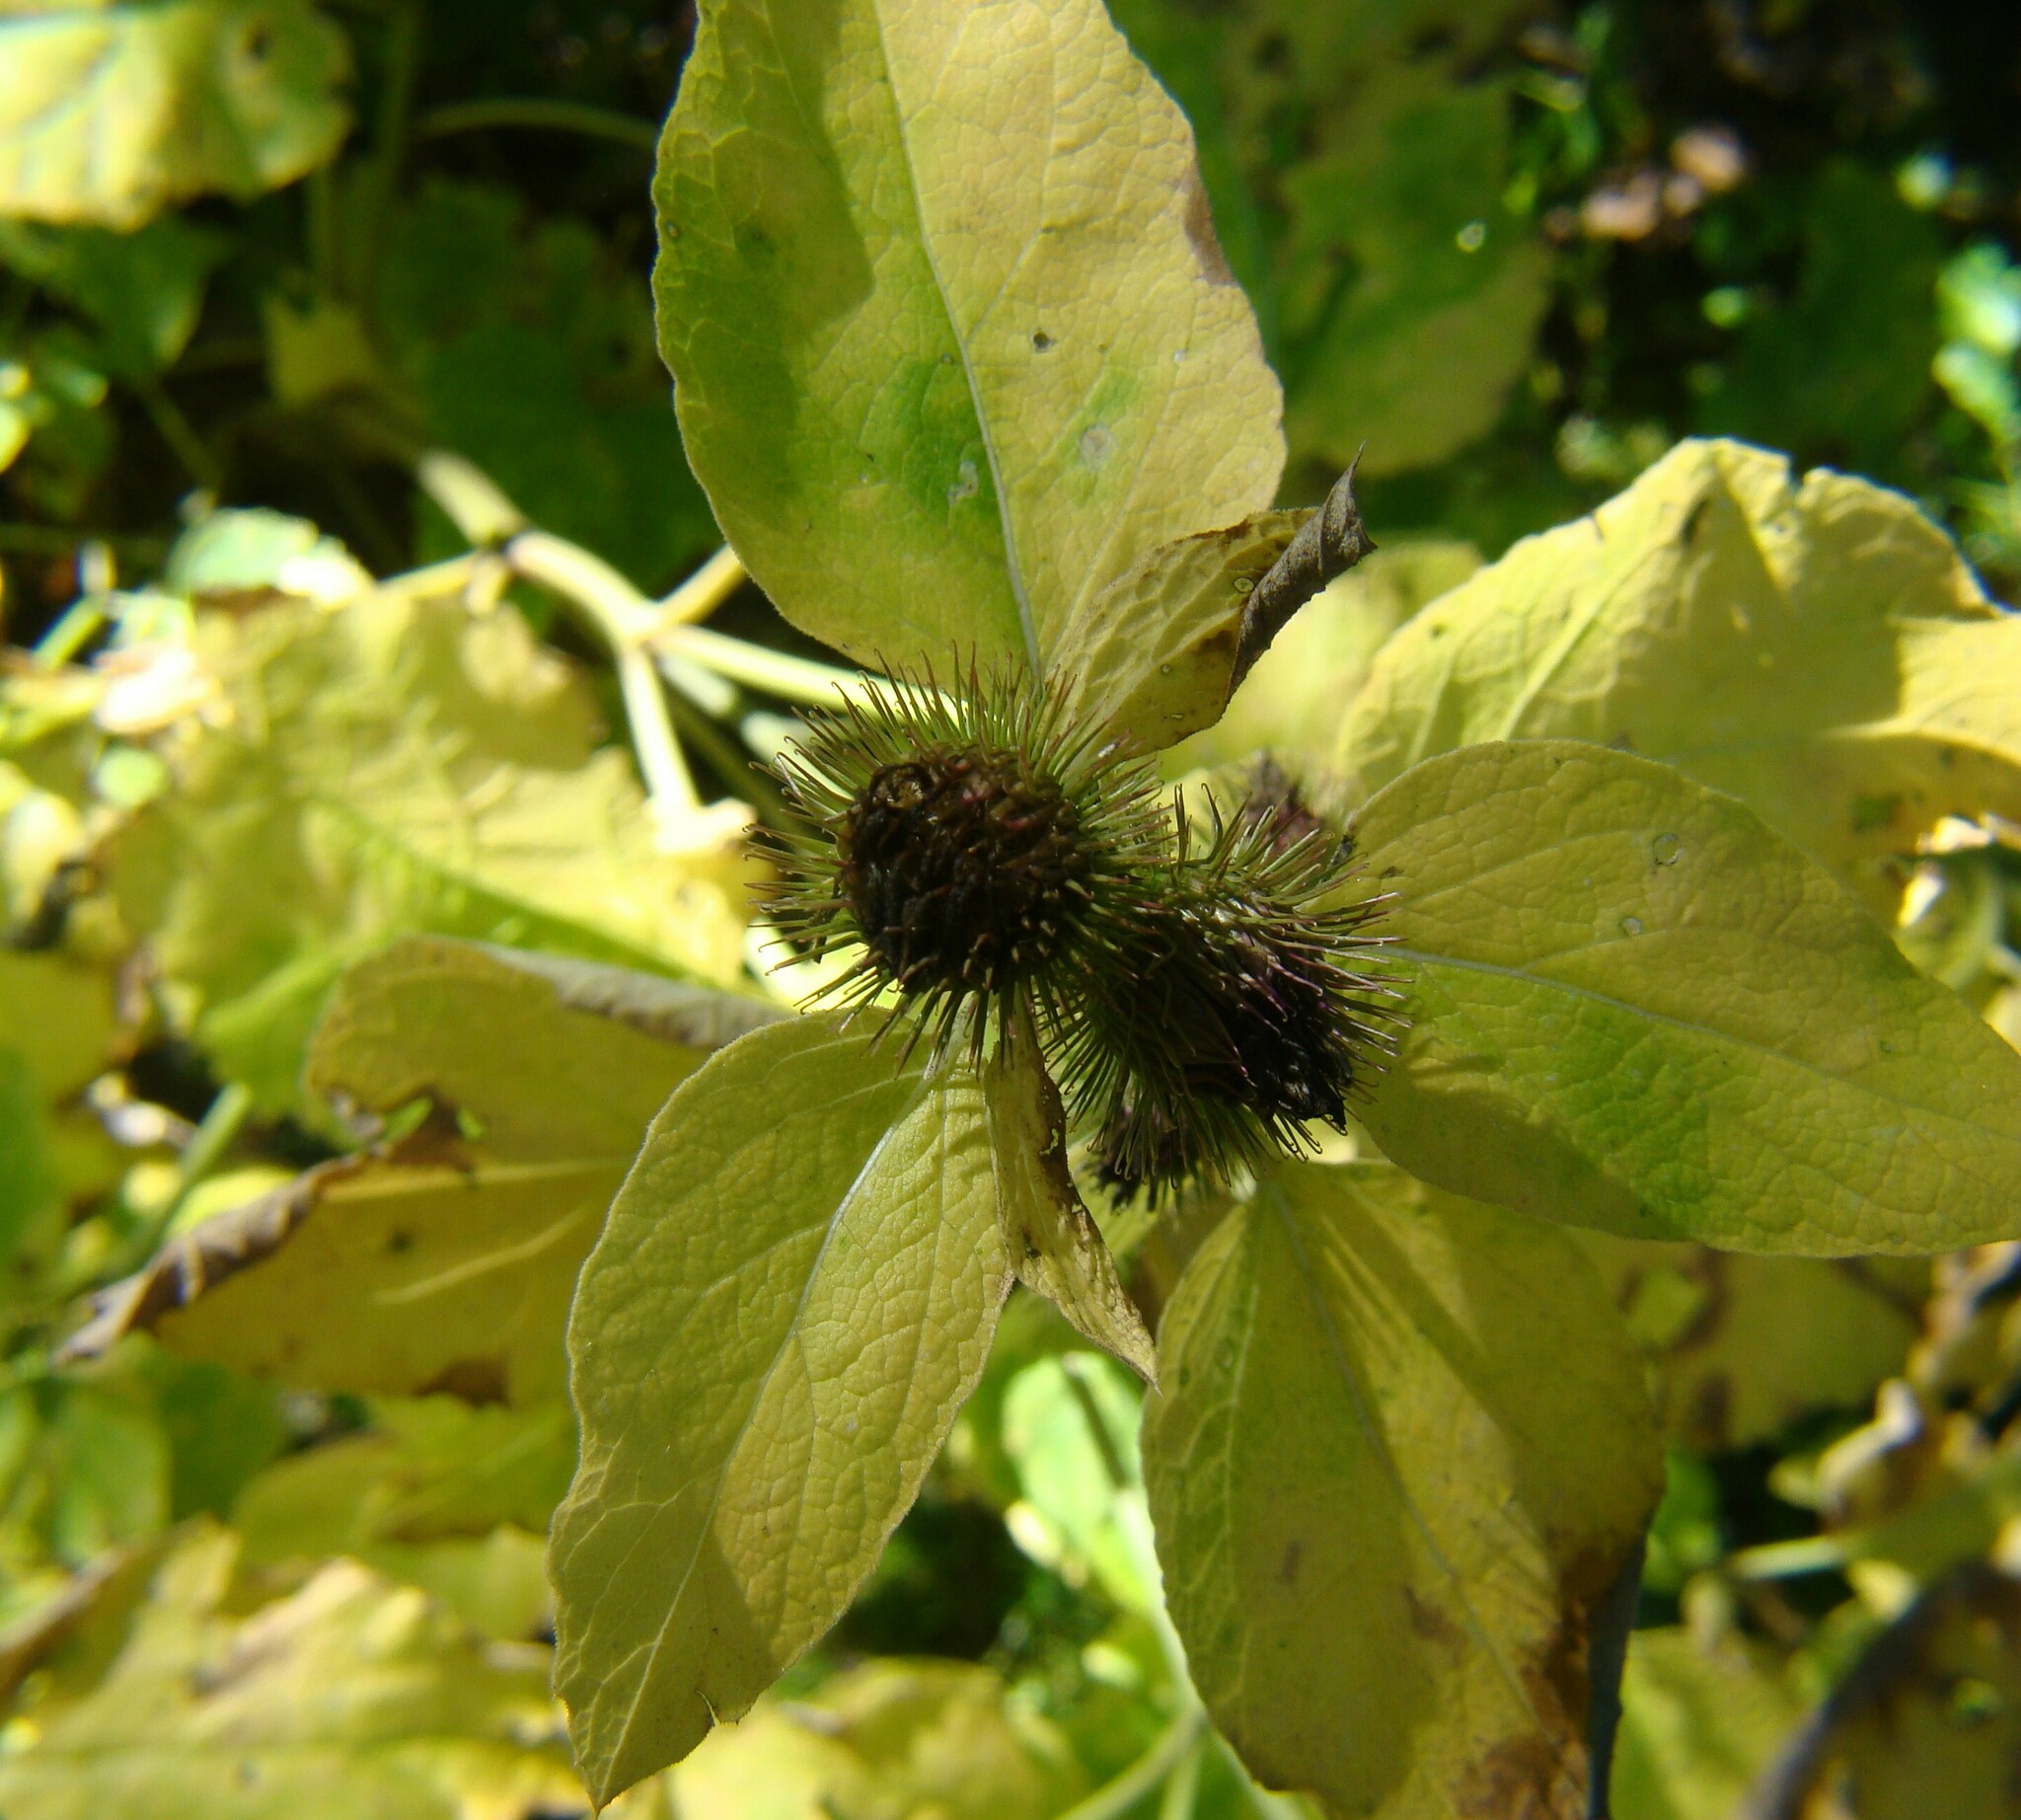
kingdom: Plantae
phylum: Tracheophyta
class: Magnoliopsida
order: Asterales
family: Asteraceae
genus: Arctium
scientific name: Arctium
